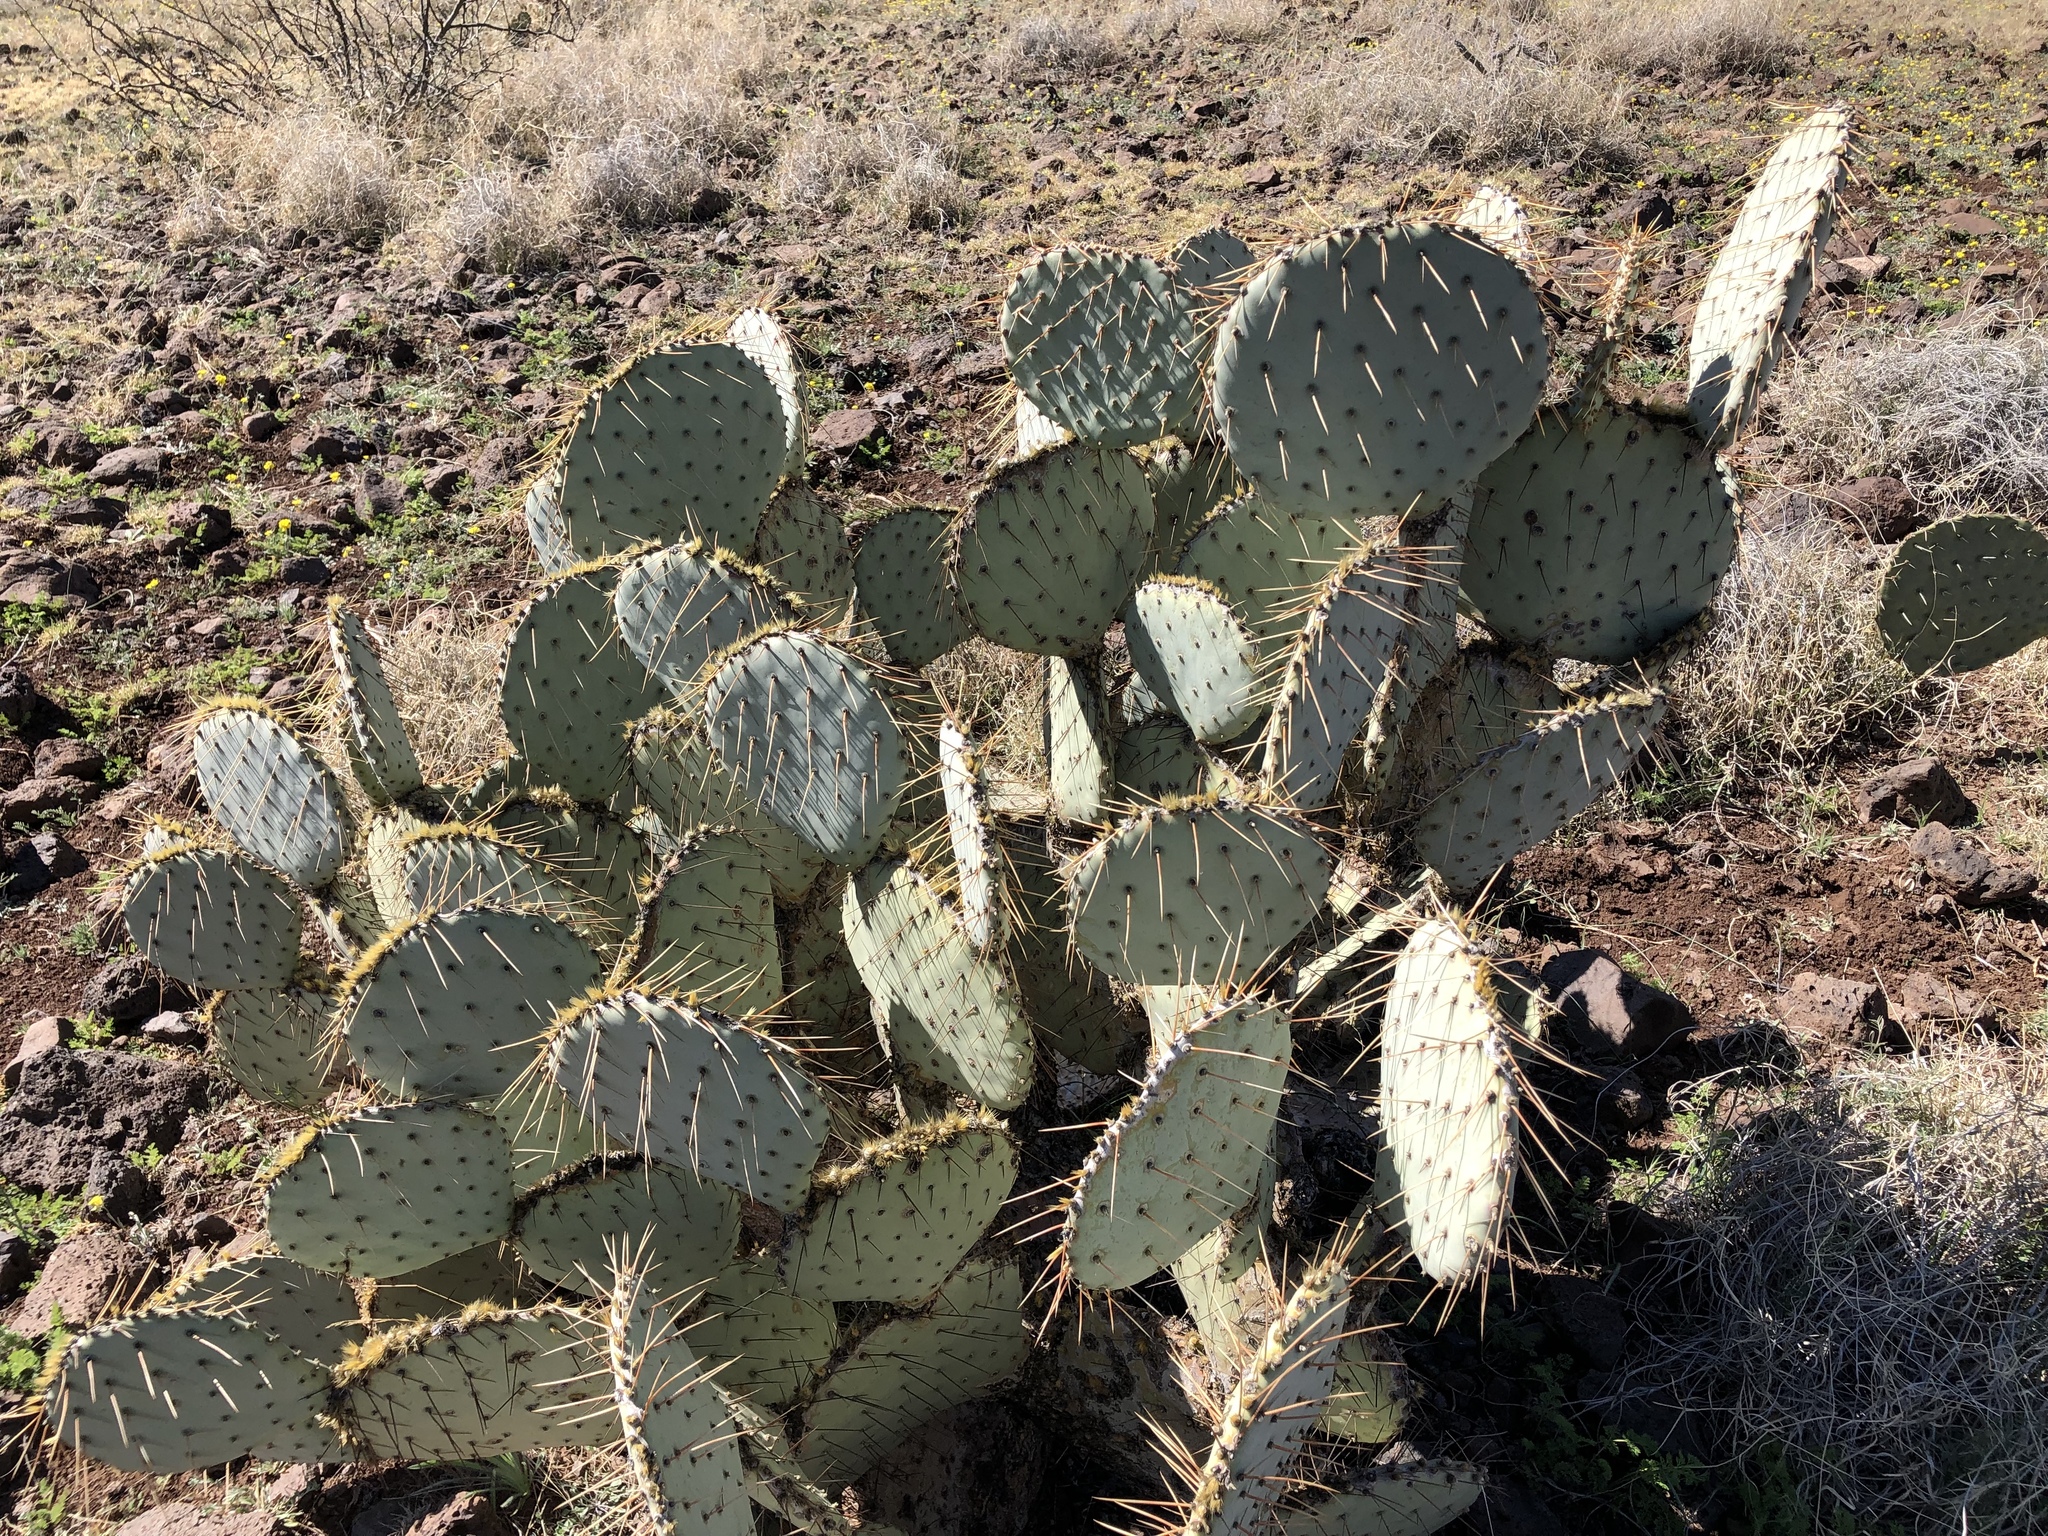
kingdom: Plantae
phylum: Tracheophyta
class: Magnoliopsida
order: Caryophyllales
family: Cactaceae
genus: Opuntia
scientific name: Opuntia chlorotica
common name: Dollar-joint prickly-pear
